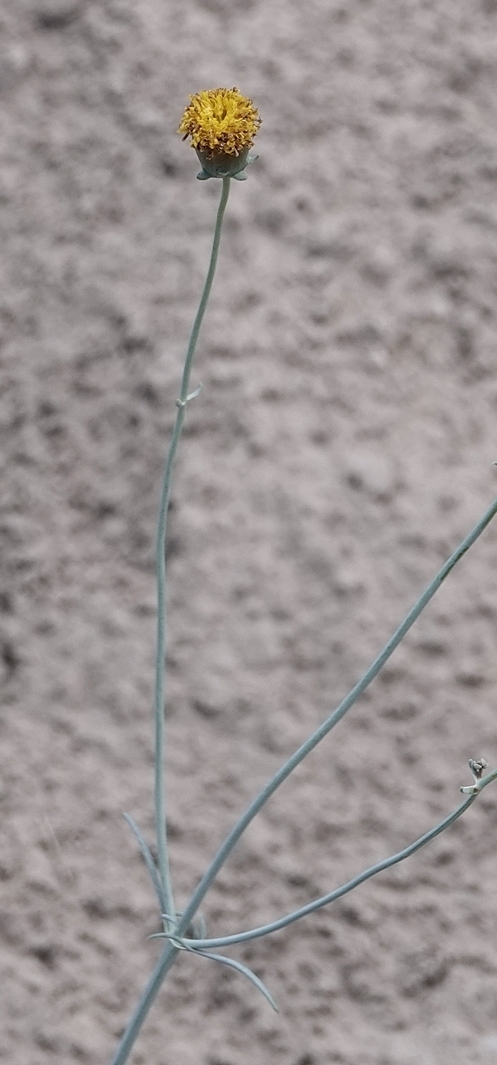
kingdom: Plantae
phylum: Tracheophyta
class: Magnoliopsida
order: Asterales
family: Asteraceae
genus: Thelesperma
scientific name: Thelesperma megapotamicum
